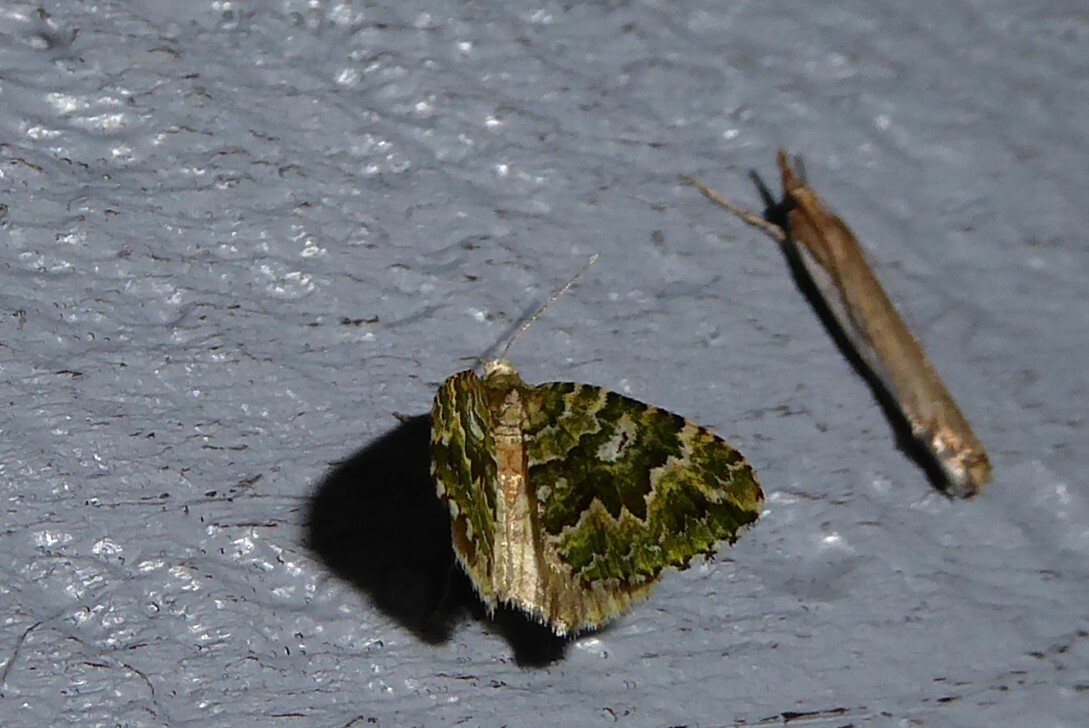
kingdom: Animalia
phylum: Arthropoda
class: Insecta
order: Lepidoptera
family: Geometridae
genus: Asaphodes
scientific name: Asaphodes beata
